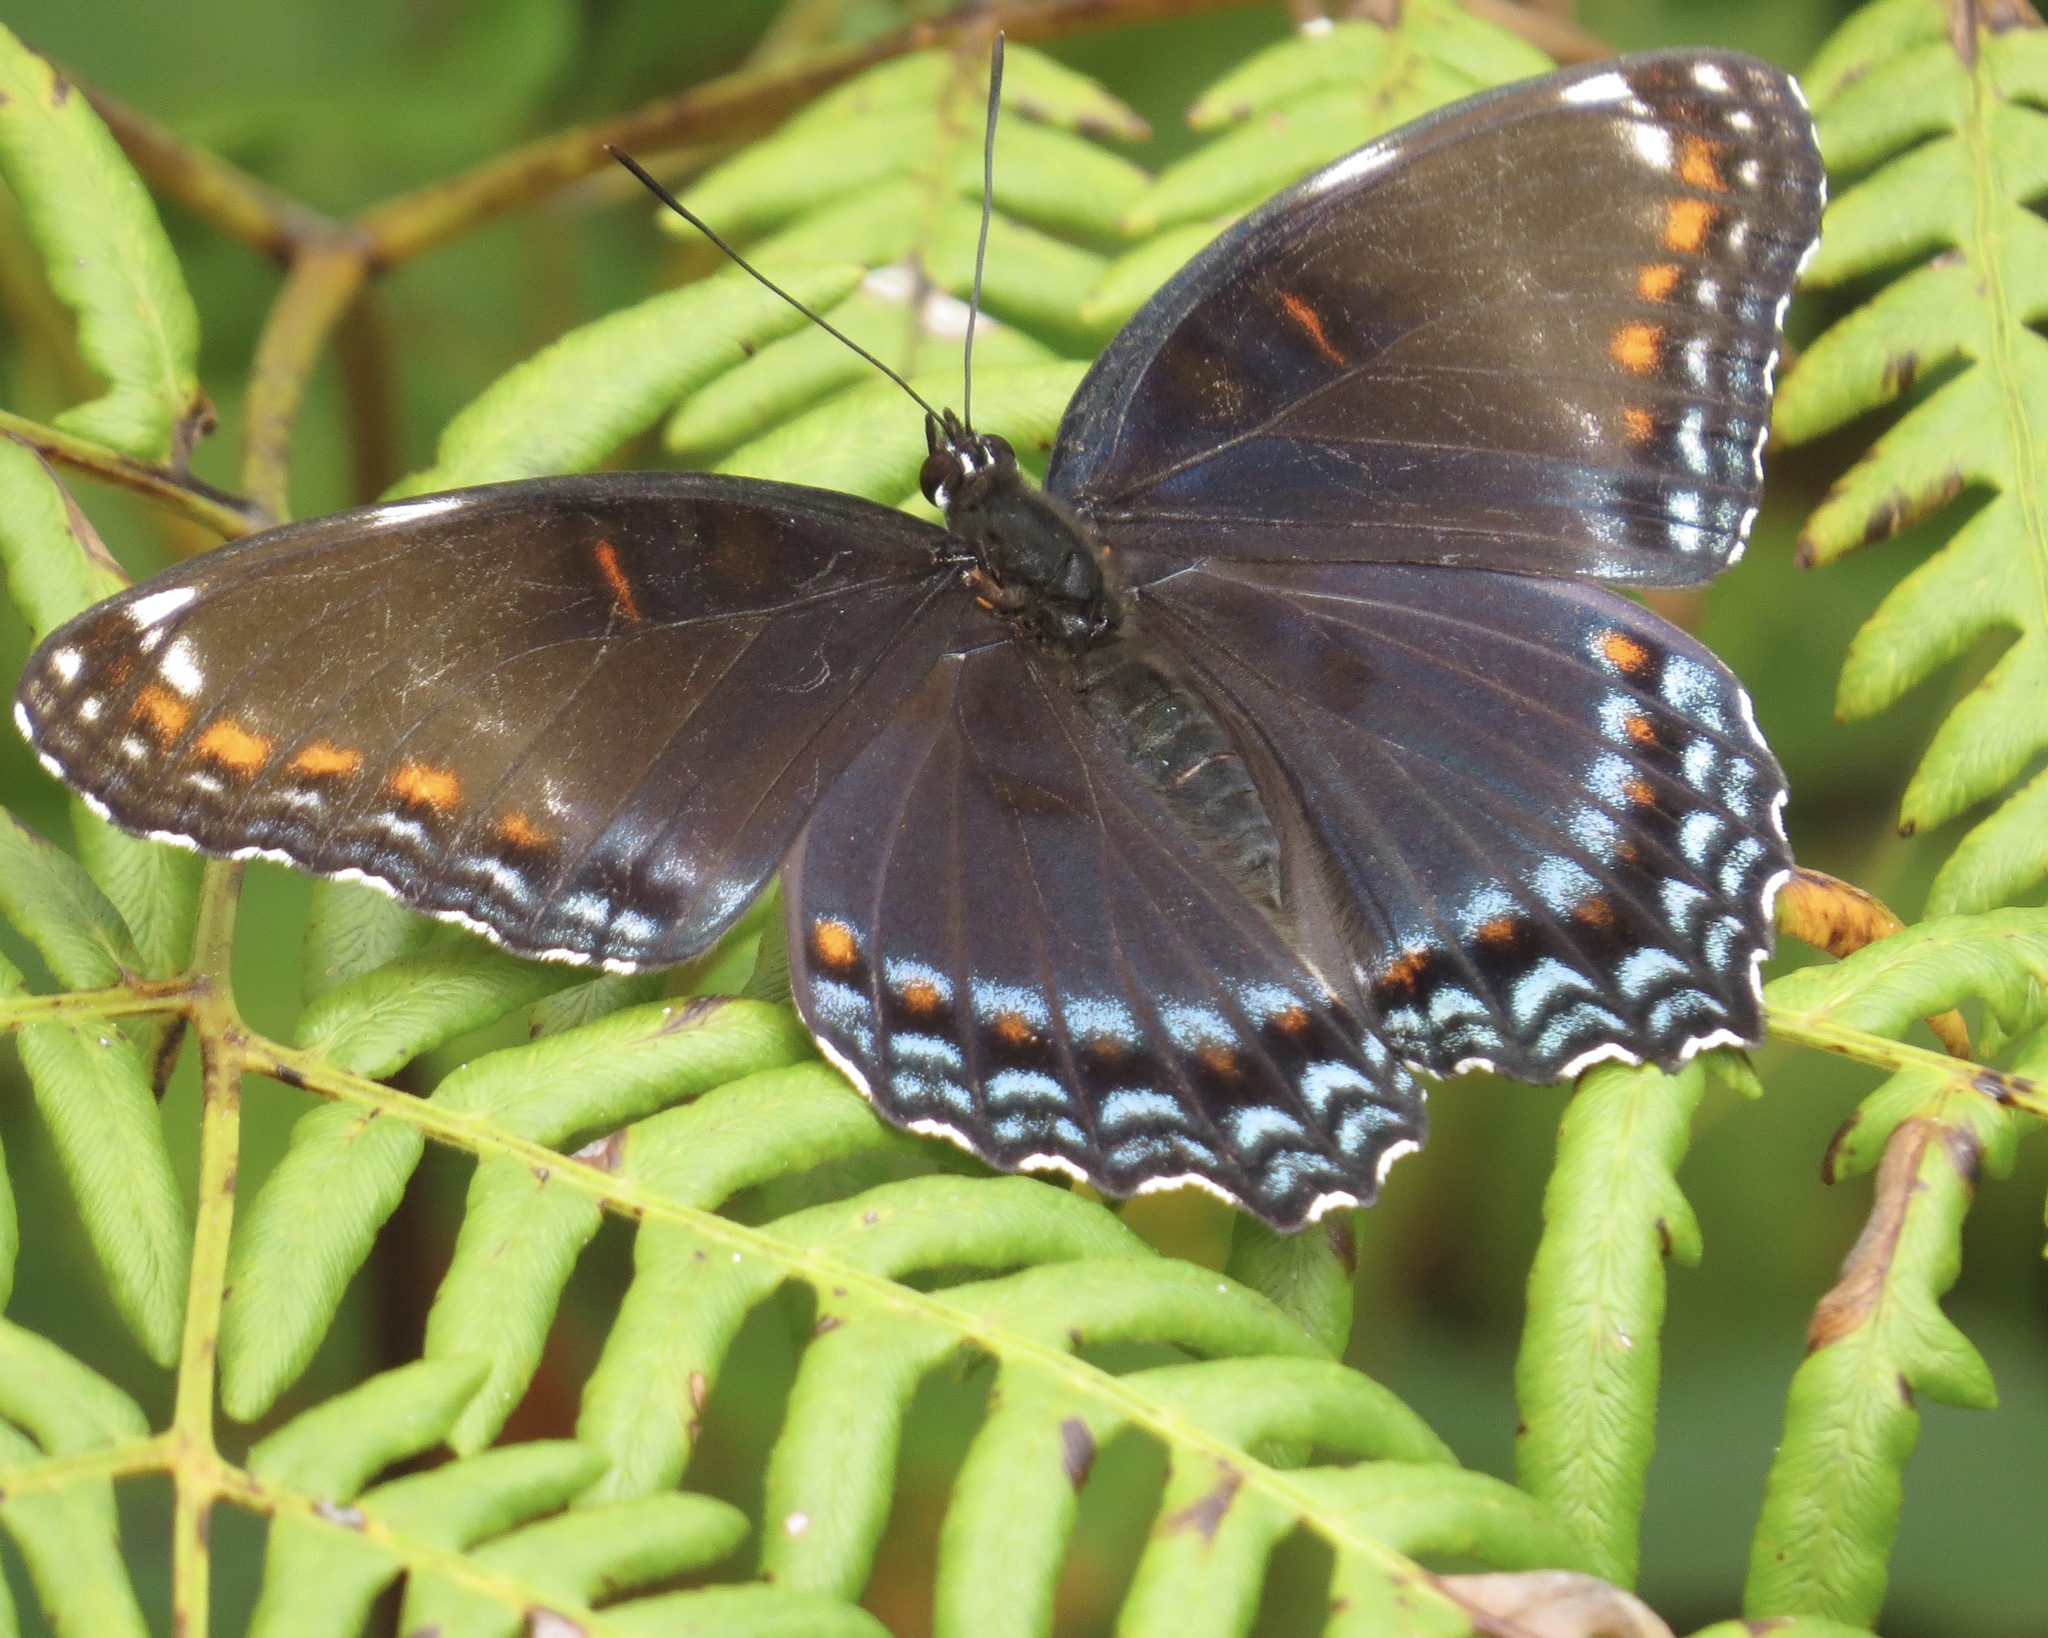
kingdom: Animalia
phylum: Arthropoda
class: Insecta
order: Lepidoptera
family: Nymphalidae
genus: Limenitis
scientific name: Limenitis arthemis
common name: Red-spotted admiral
